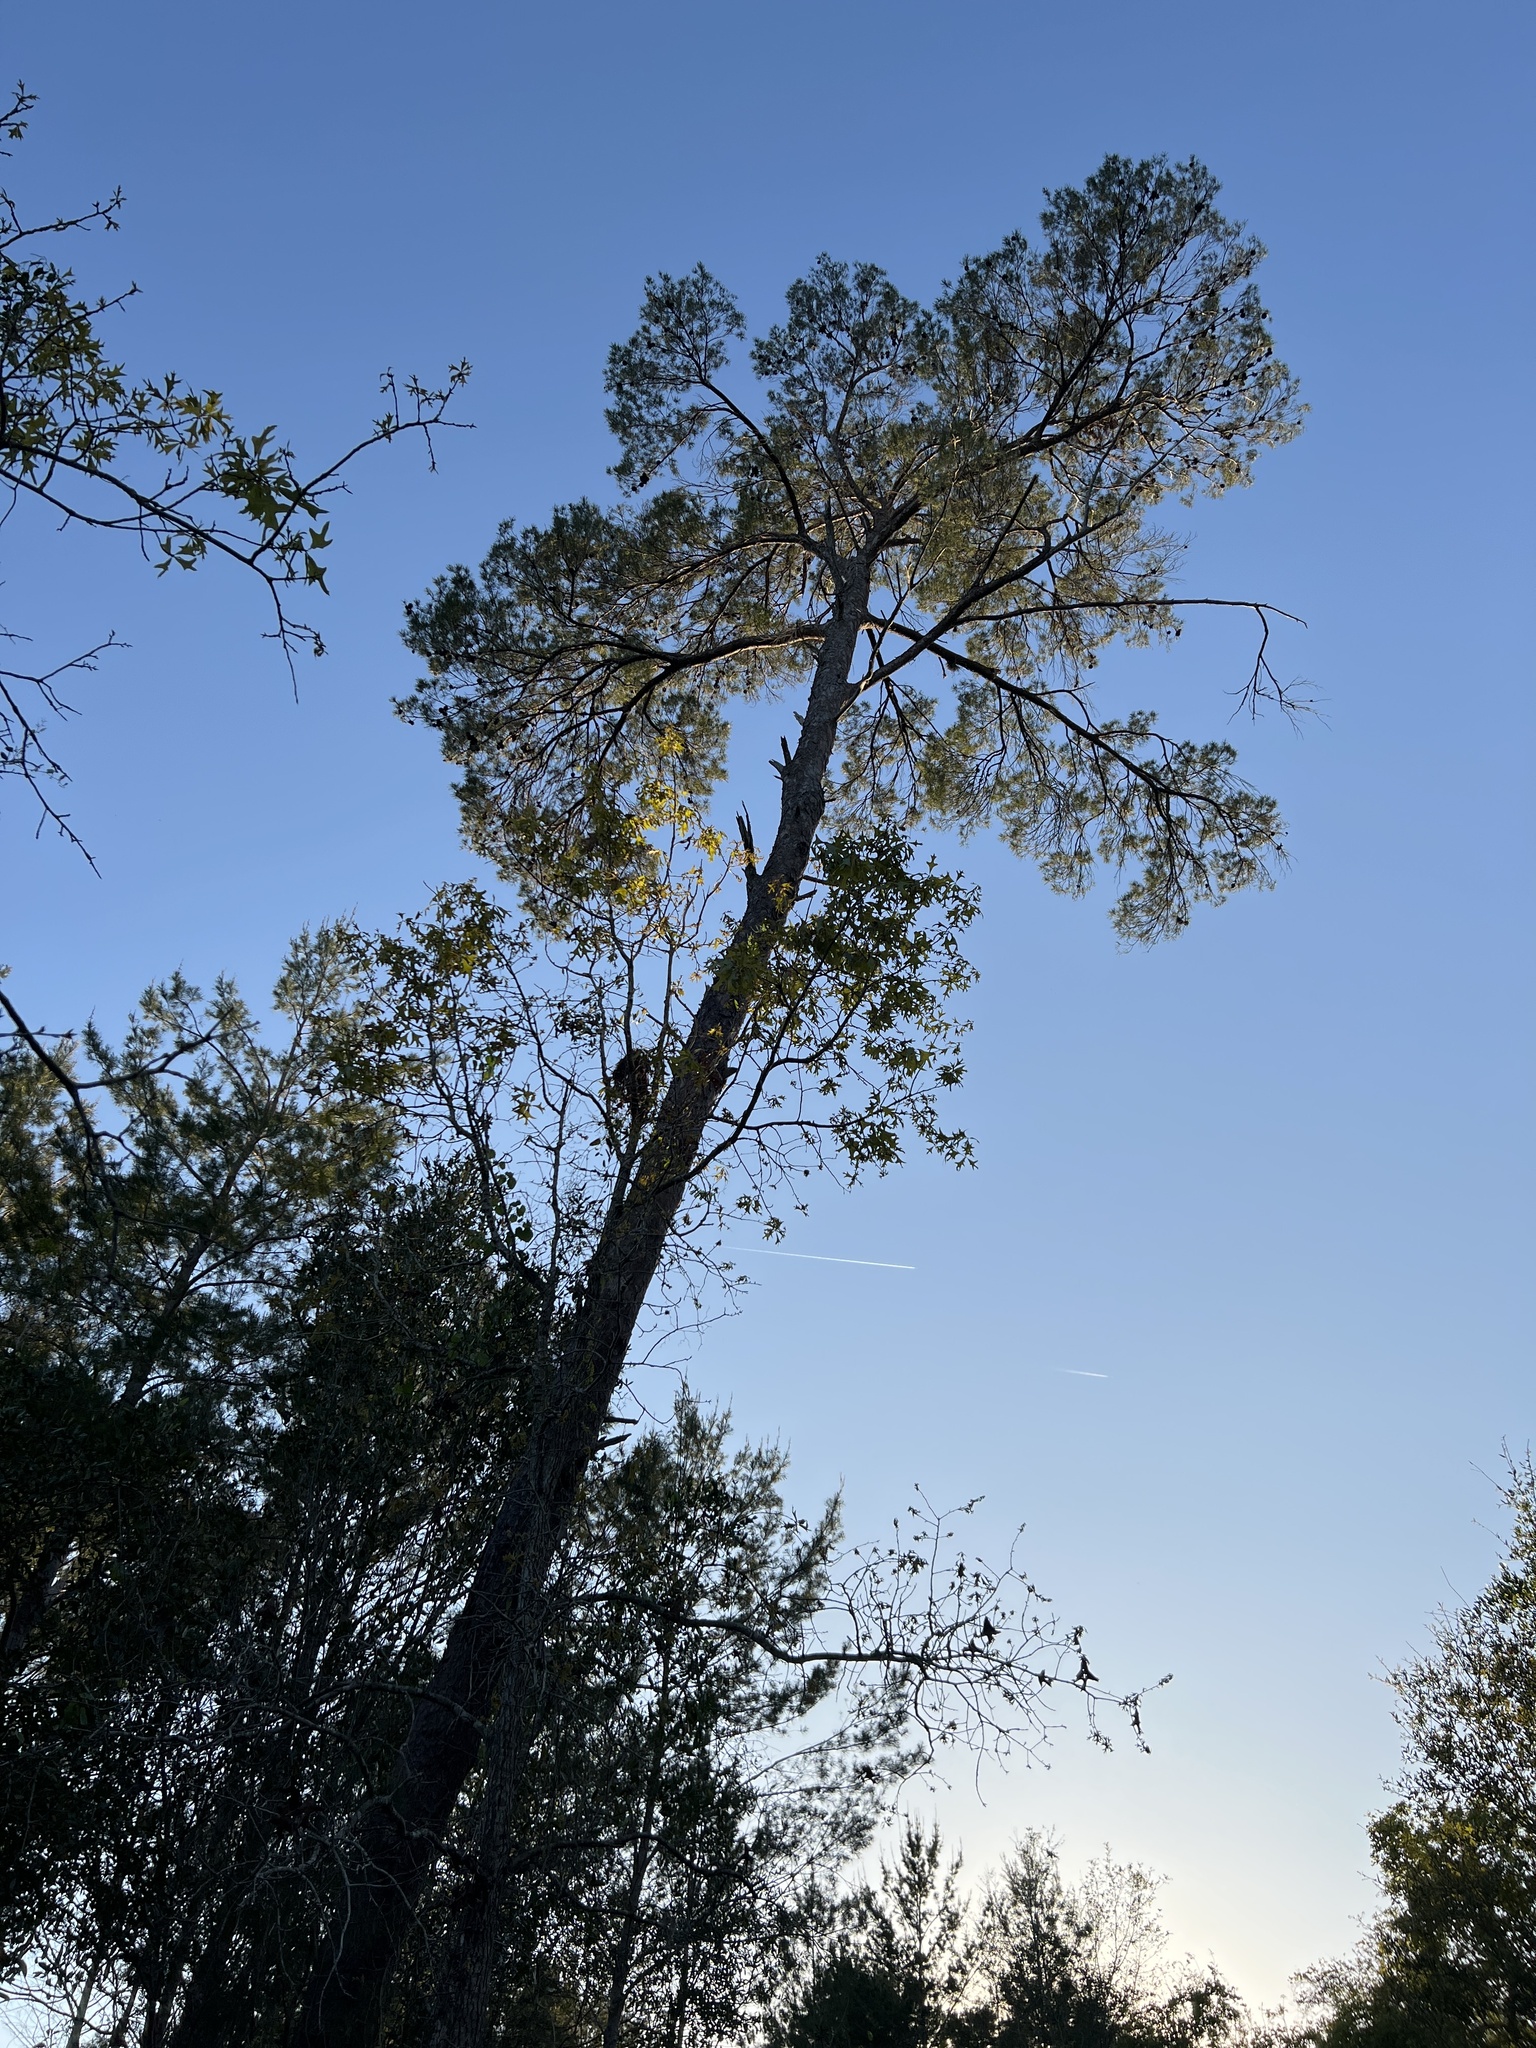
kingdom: Plantae
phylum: Tracheophyta
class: Pinopsida
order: Pinales
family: Pinaceae
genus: Pinus
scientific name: Pinus clausa
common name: Sand pine
